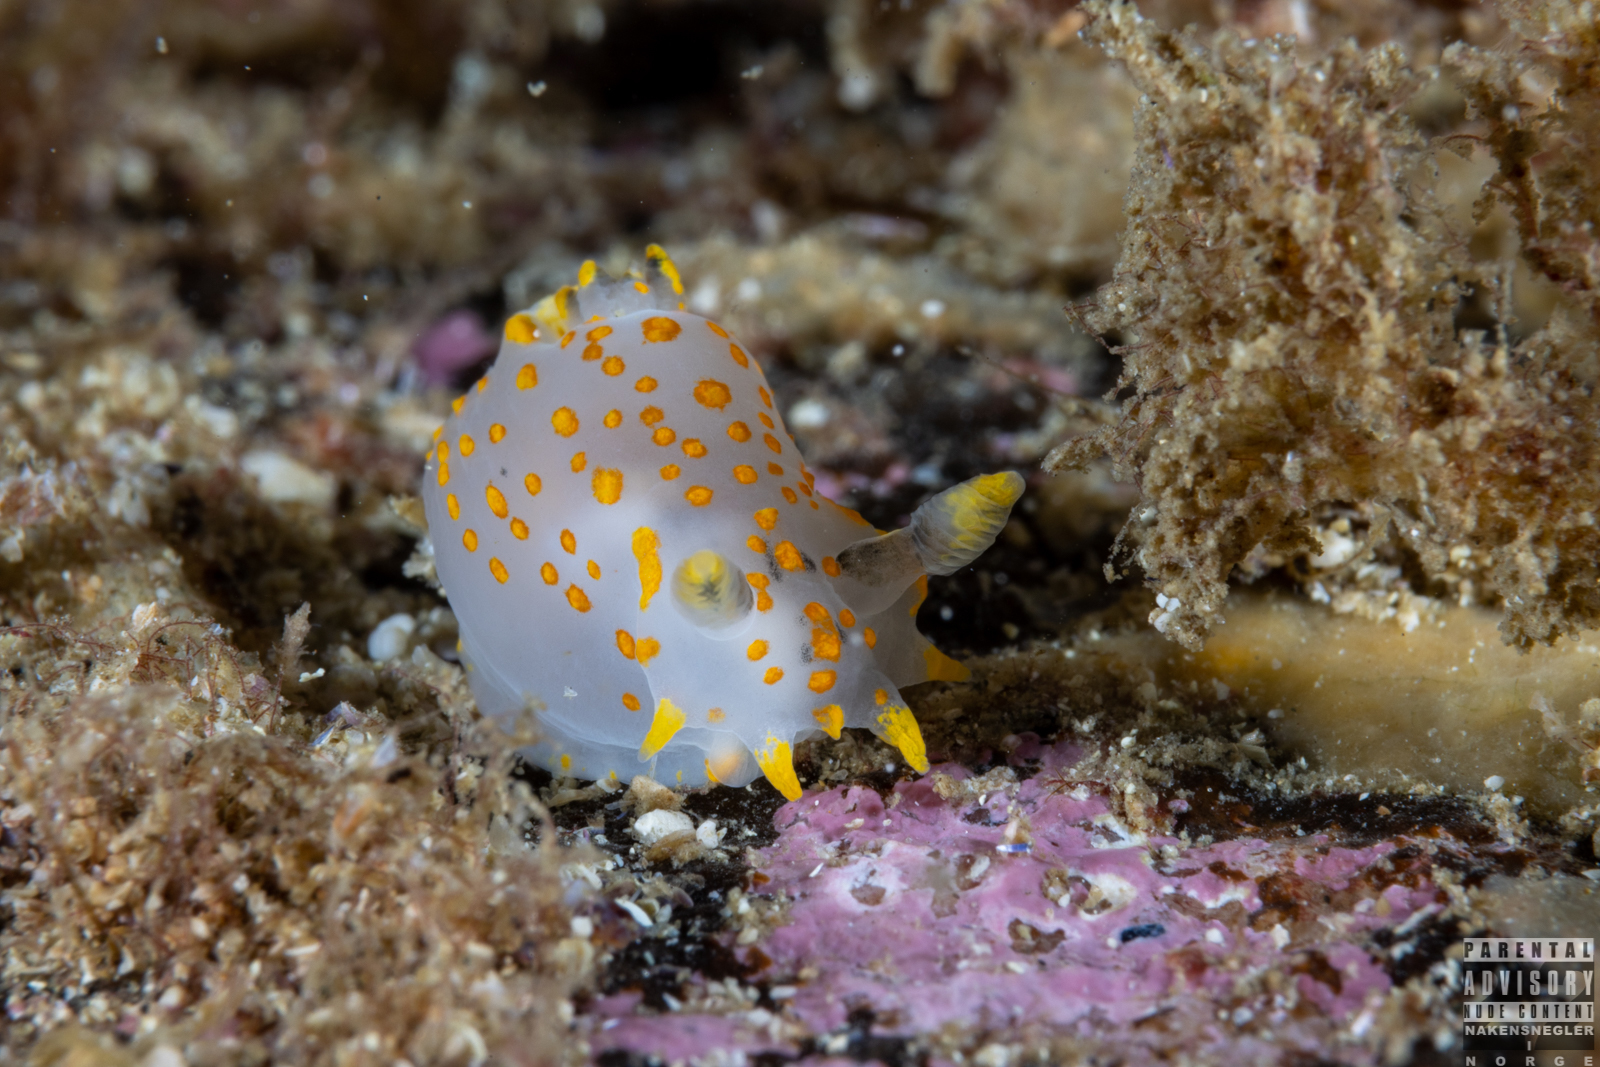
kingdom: Animalia
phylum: Mollusca
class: Gastropoda
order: Nudibranchia
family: Polyceridae
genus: Polycera
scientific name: Polycera quadrilineata
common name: Four-striped polycera
